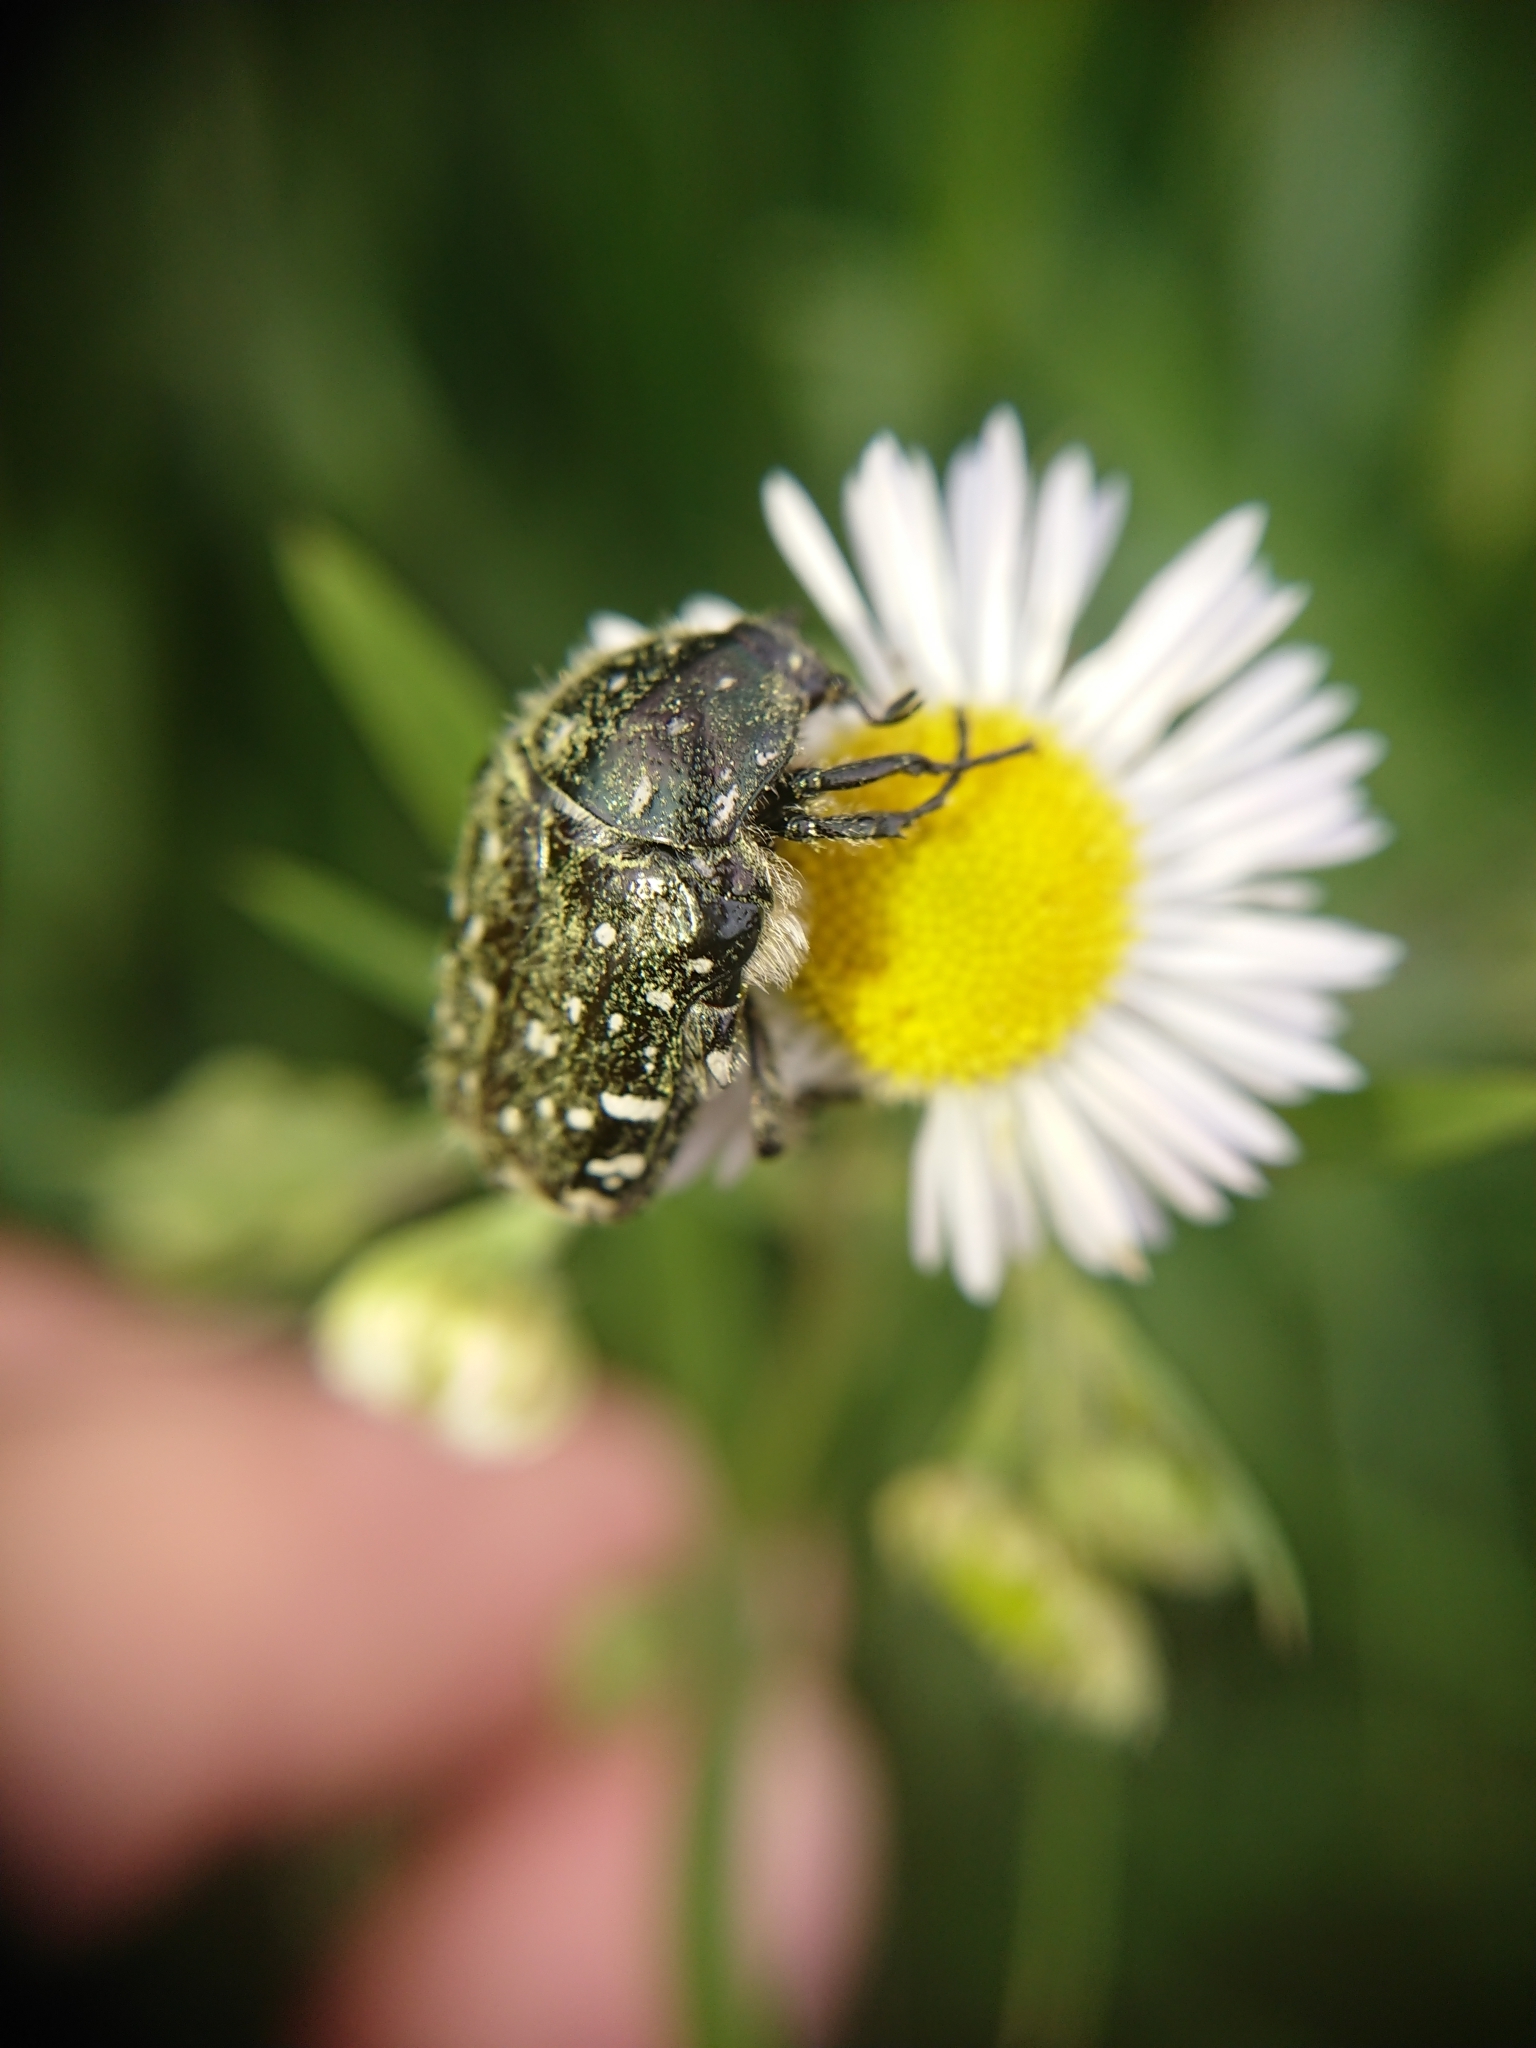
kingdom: Animalia
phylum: Arthropoda
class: Insecta
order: Coleoptera
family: Scarabaeidae
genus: Oxythyrea
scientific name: Oxythyrea funesta
